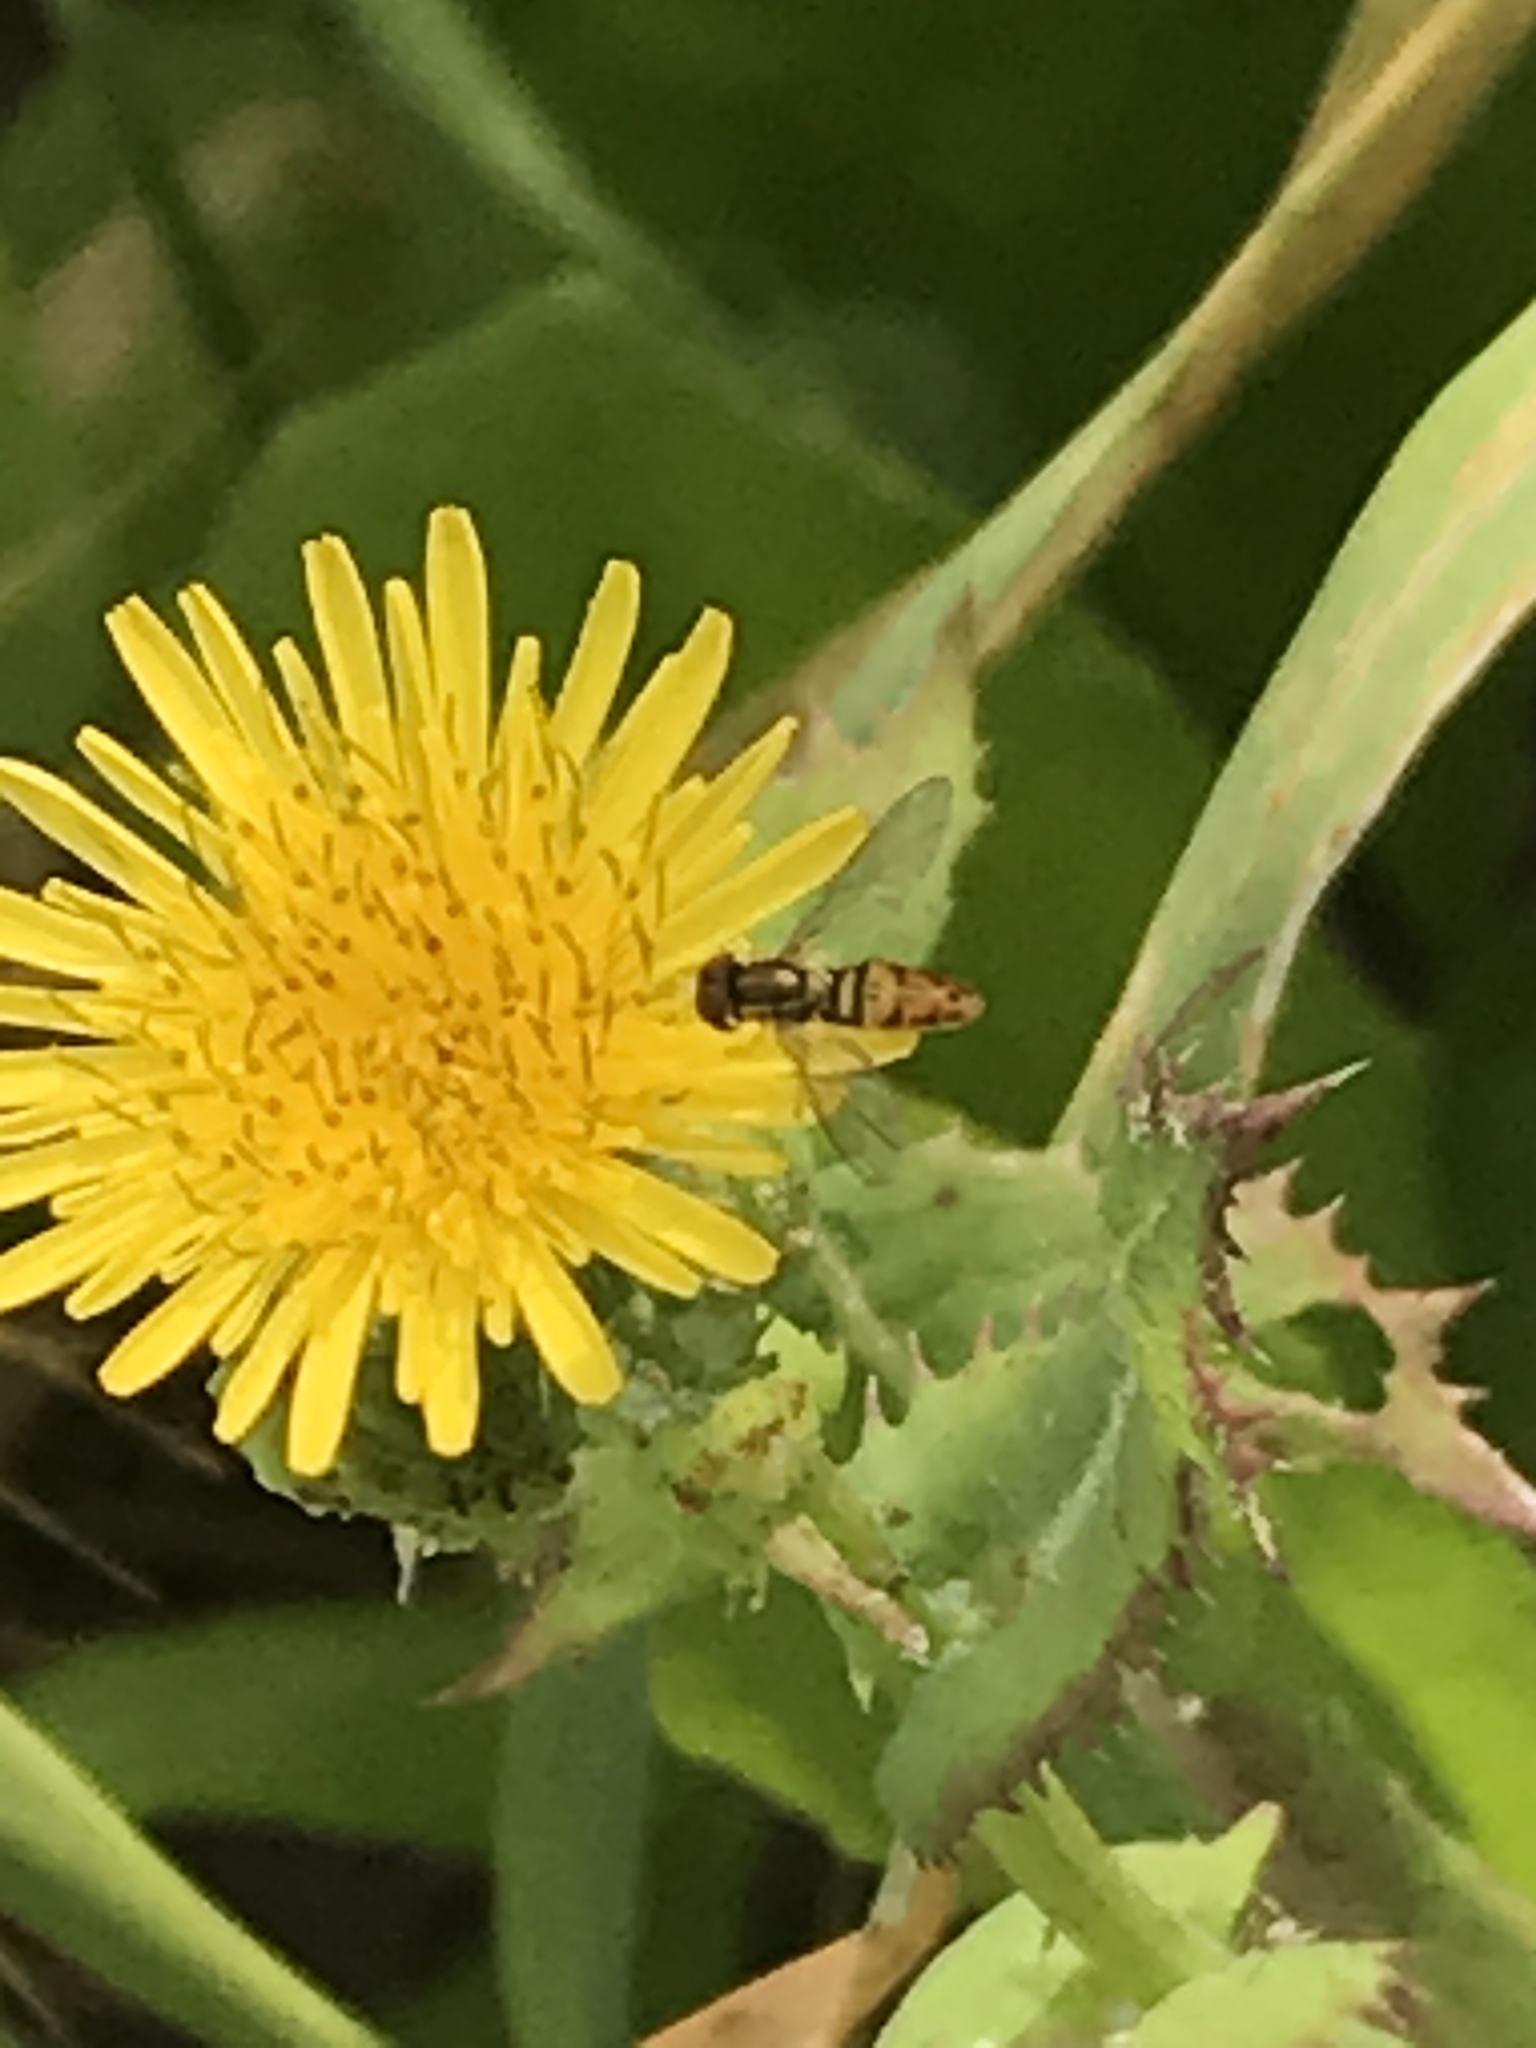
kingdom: Animalia
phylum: Arthropoda
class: Insecta
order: Diptera
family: Syrphidae
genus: Toxomerus
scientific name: Toxomerus marginatus
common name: Syrphid fly
